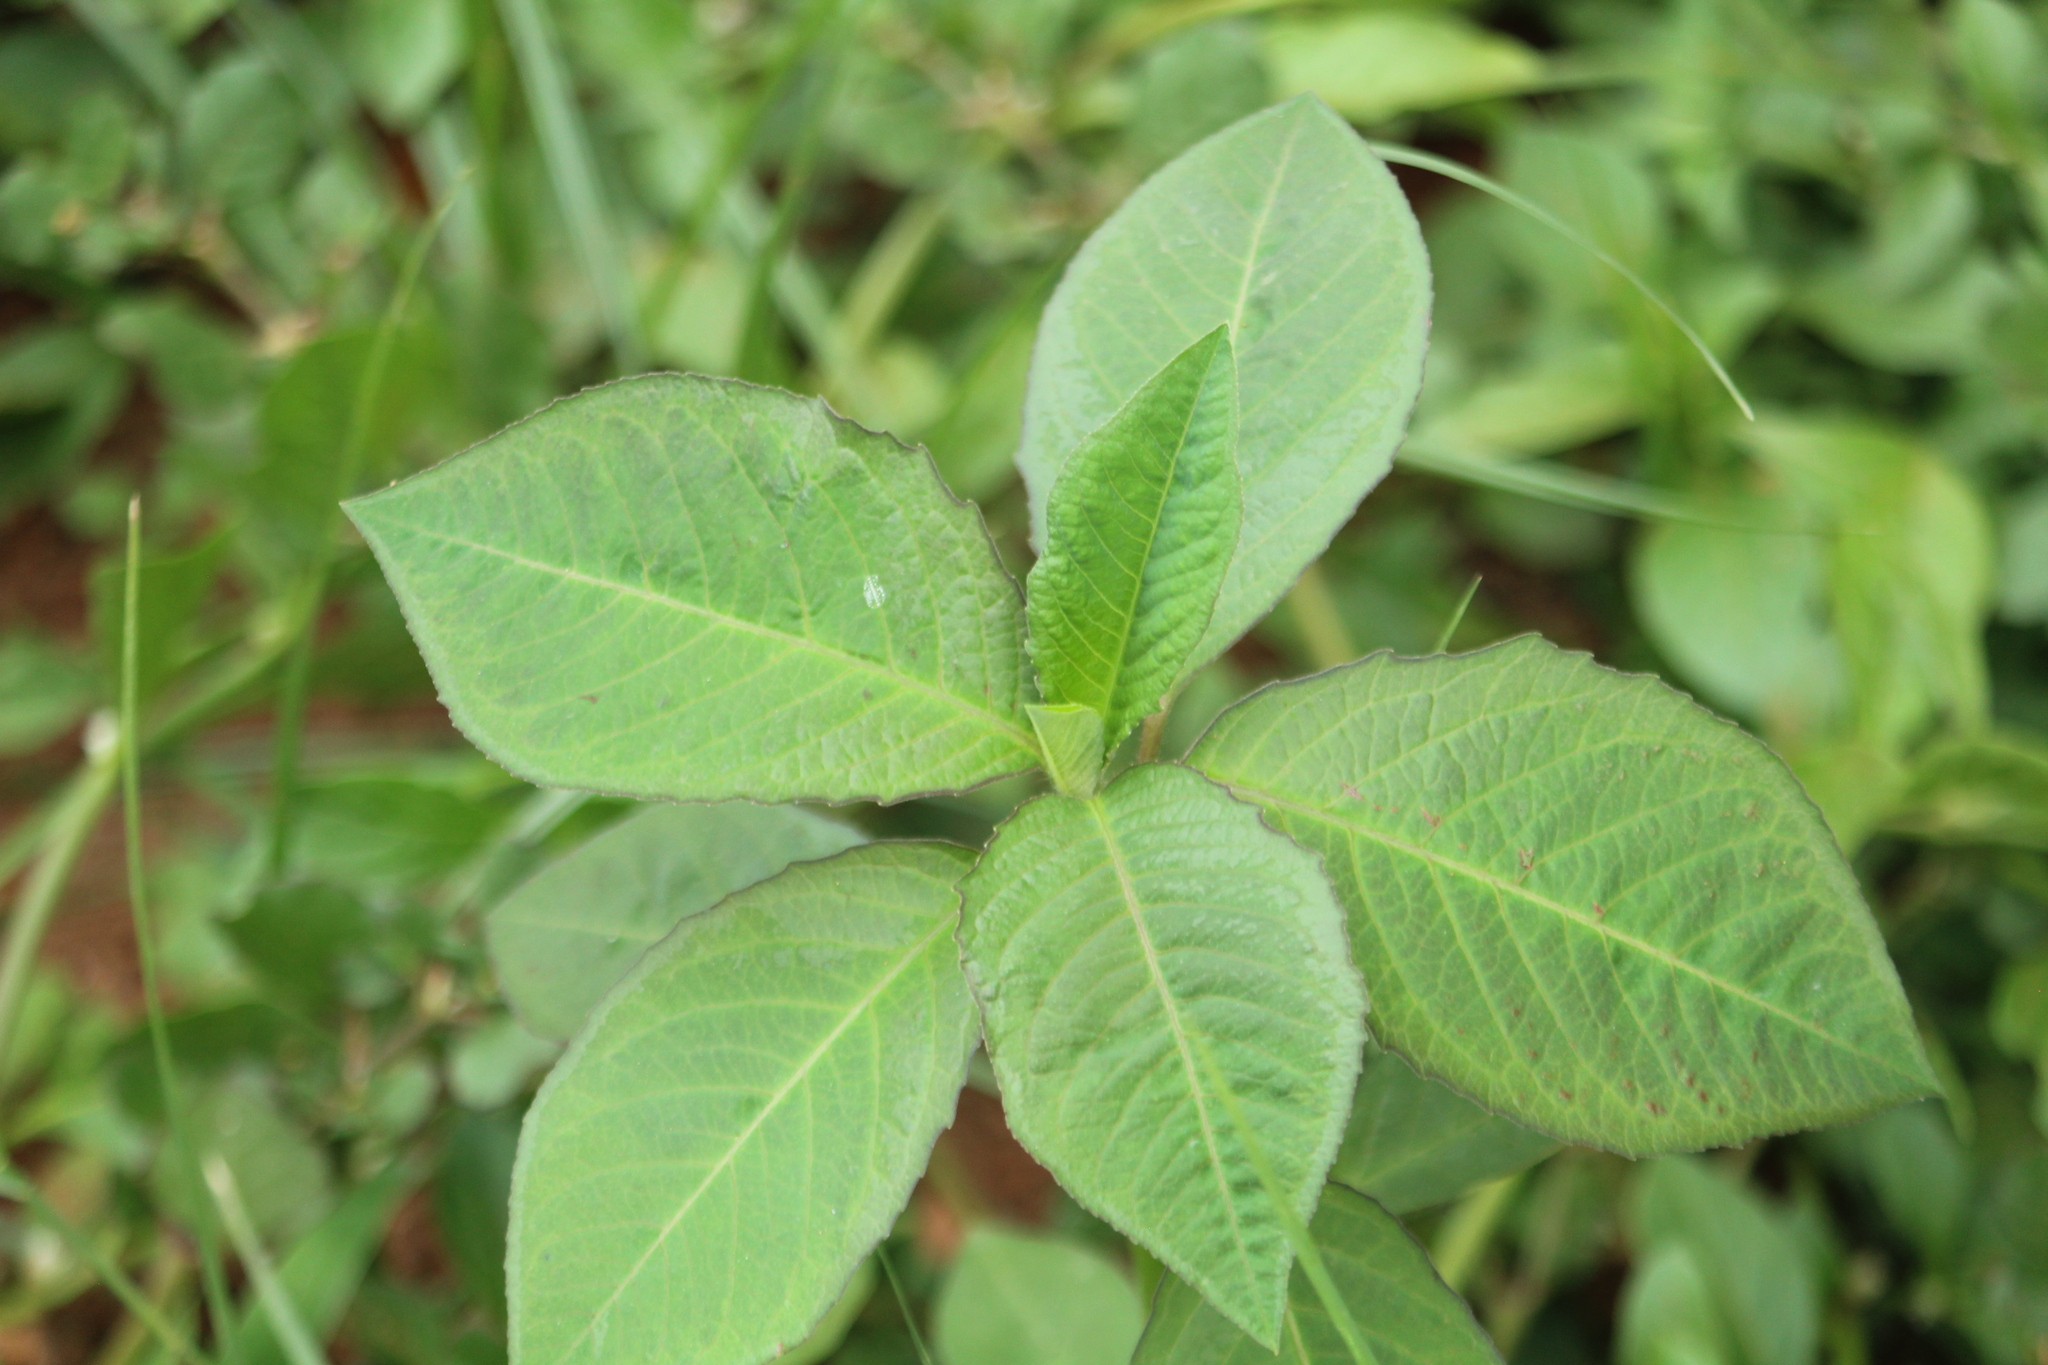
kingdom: Plantae
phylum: Tracheophyta
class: Magnoliopsida
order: Malpighiales
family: Euphorbiaceae
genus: Euphorbia
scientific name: Euphorbia heterophylla
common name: Mexican fireplant
